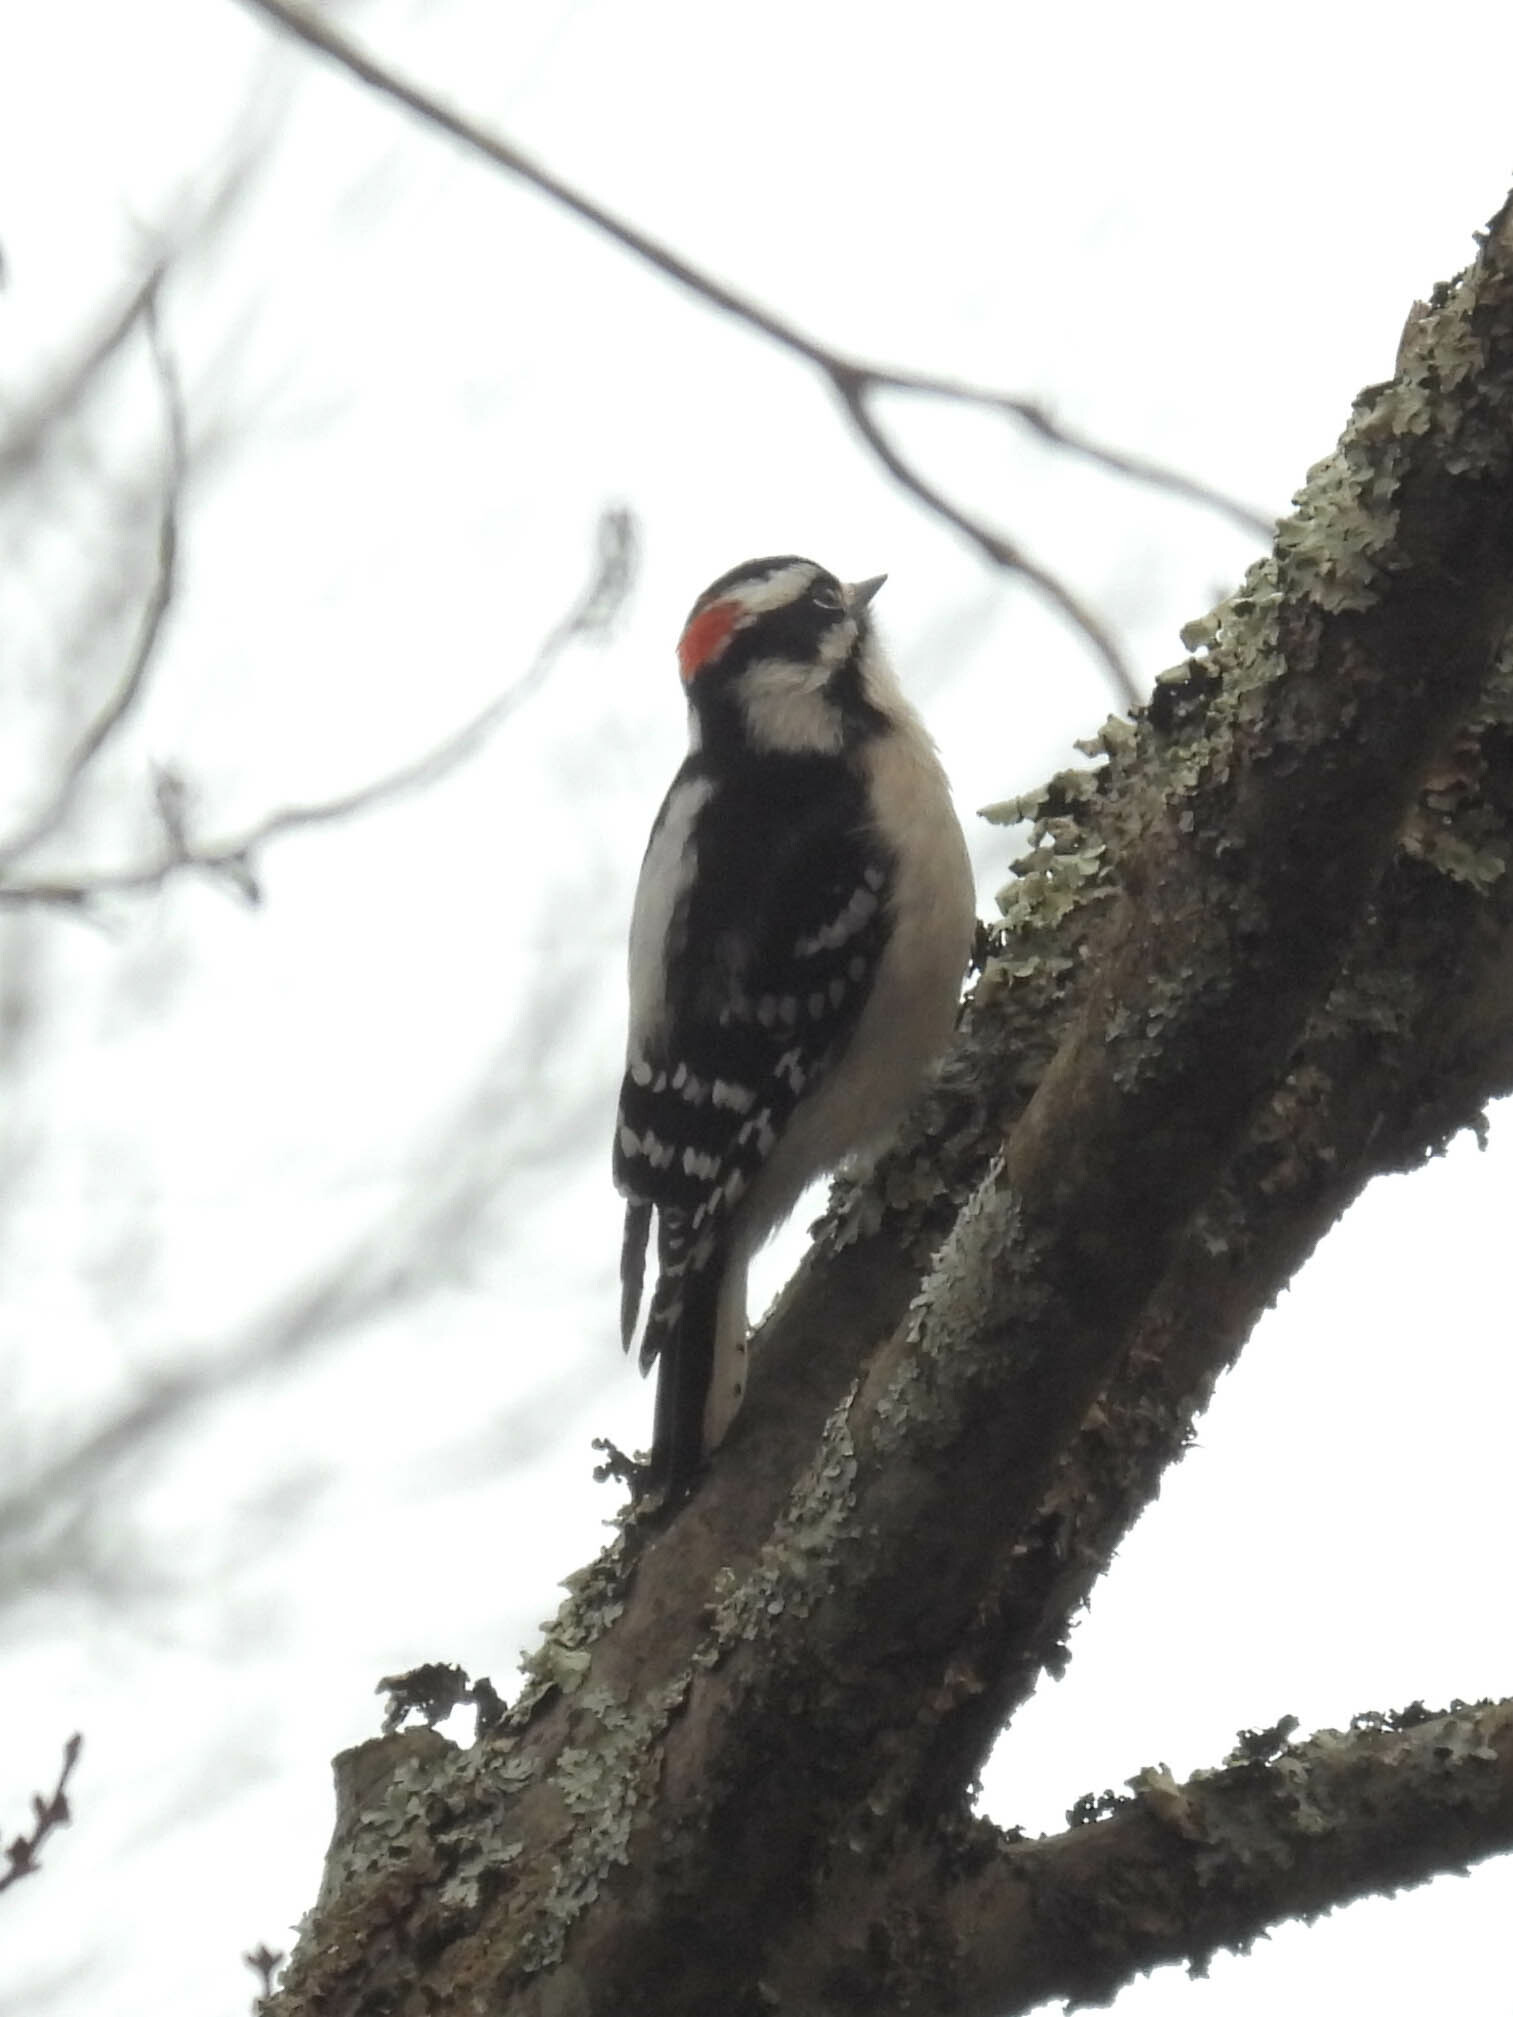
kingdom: Animalia
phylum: Chordata
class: Aves
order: Piciformes
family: Picidae
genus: Dryobates
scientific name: Dryobates pubescens
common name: Downy woodpecker
